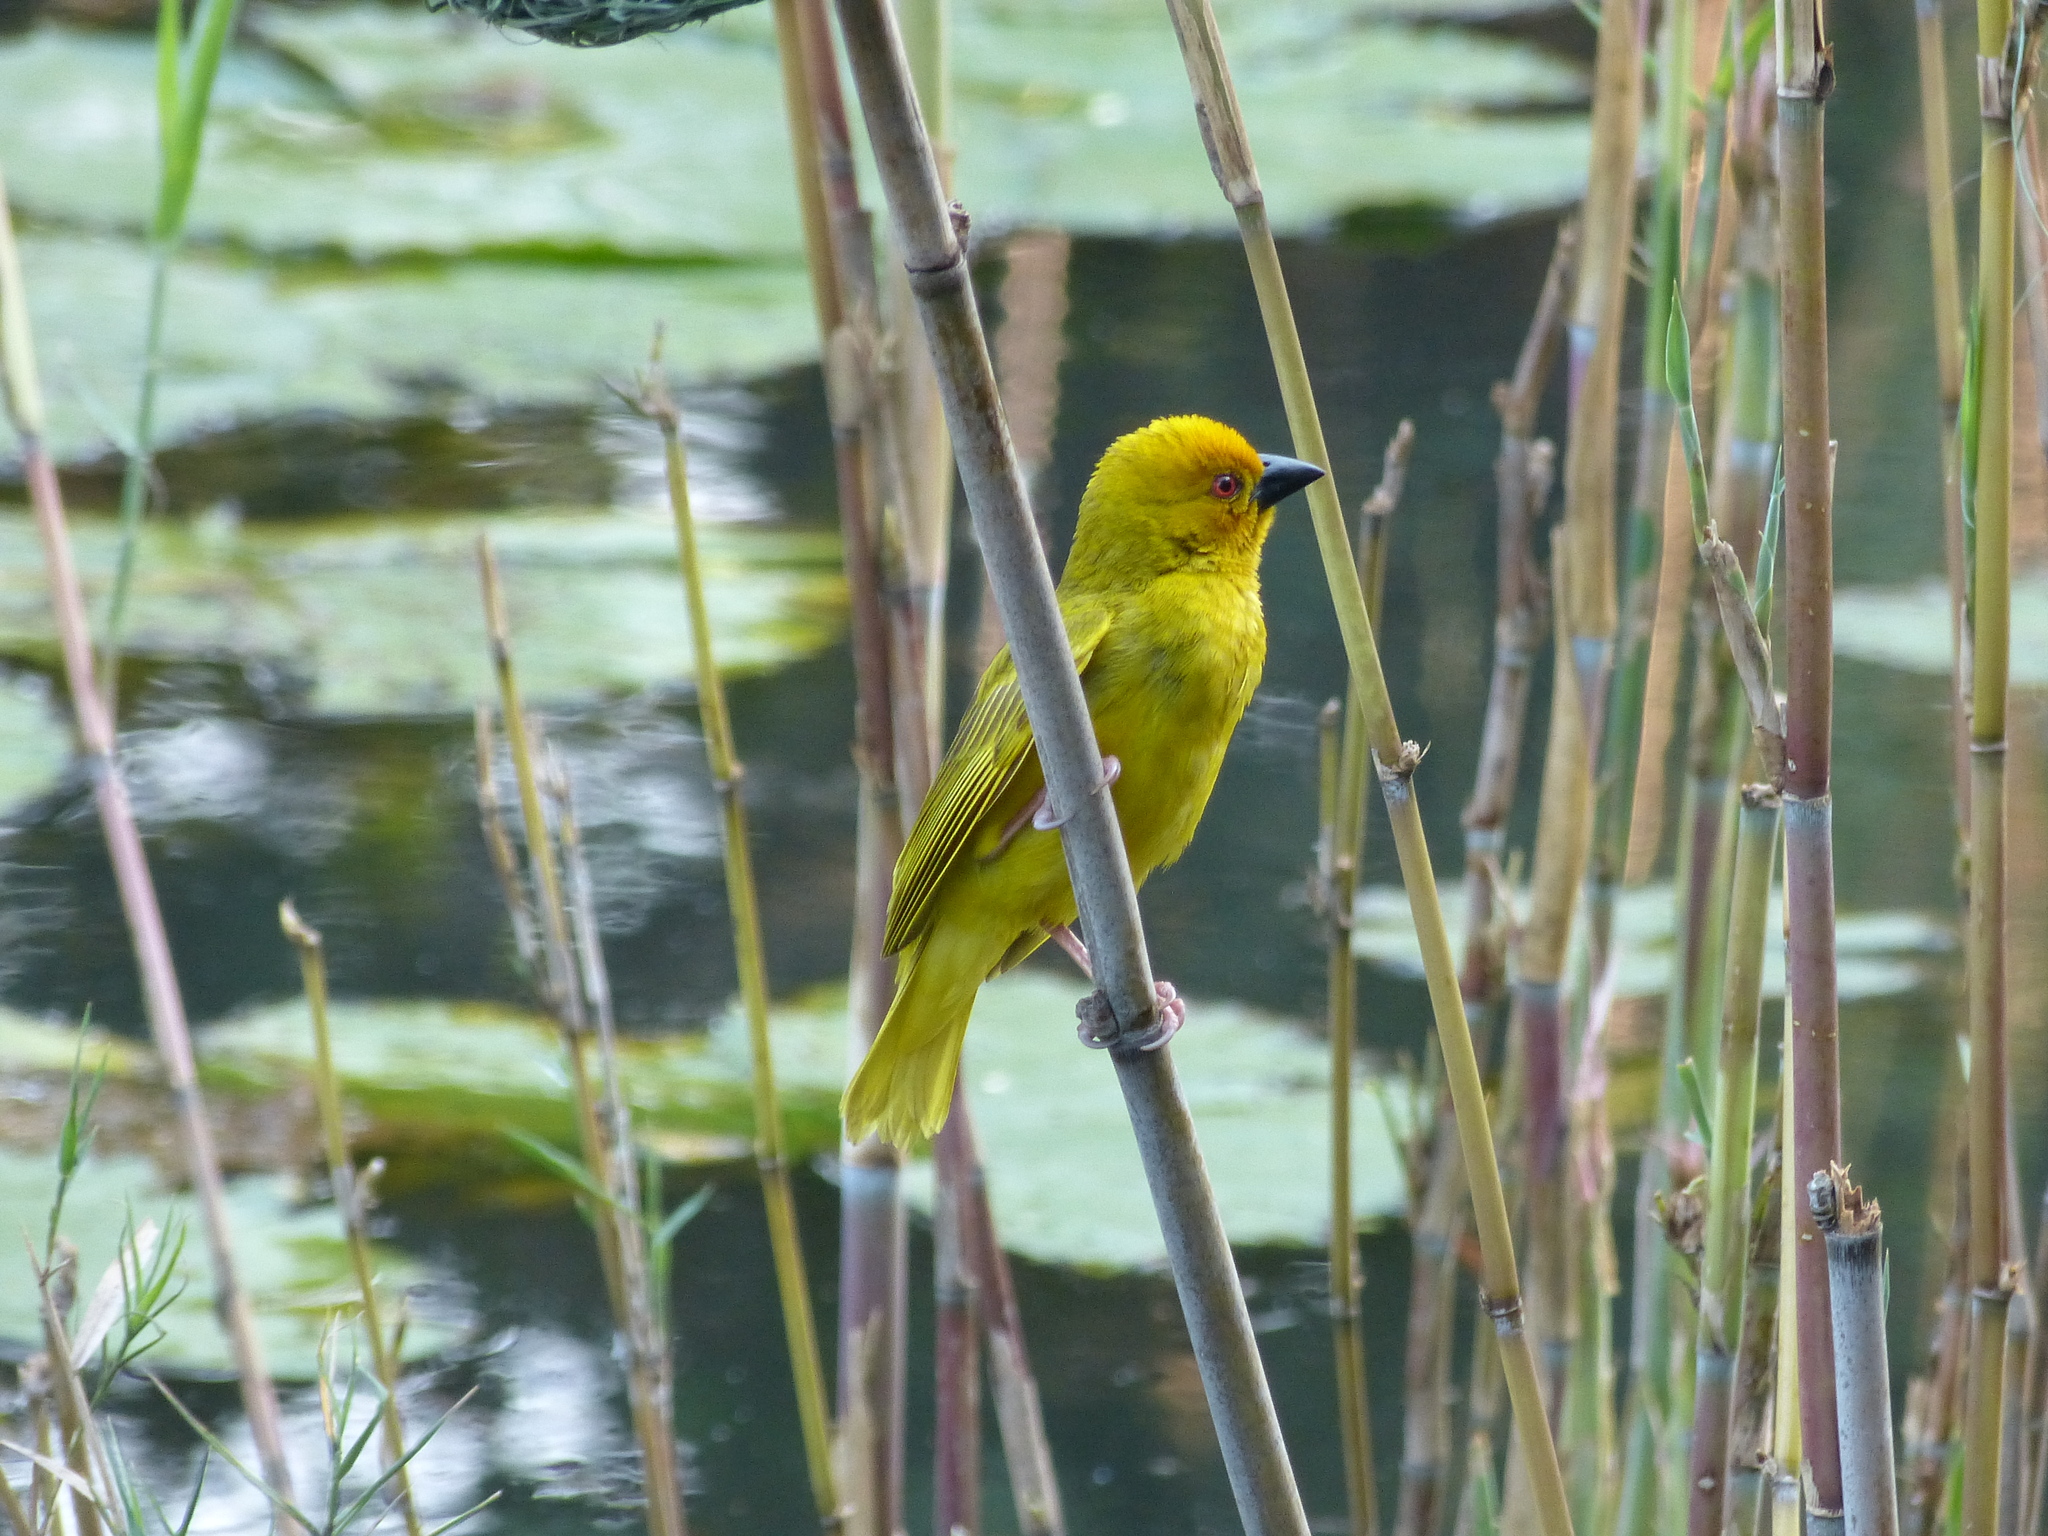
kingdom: Animalia
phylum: Chordata
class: Aves
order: Passeriformes
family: Ploceidae
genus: Ploceus
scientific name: Ploceus subaureus
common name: Yellow weaver
